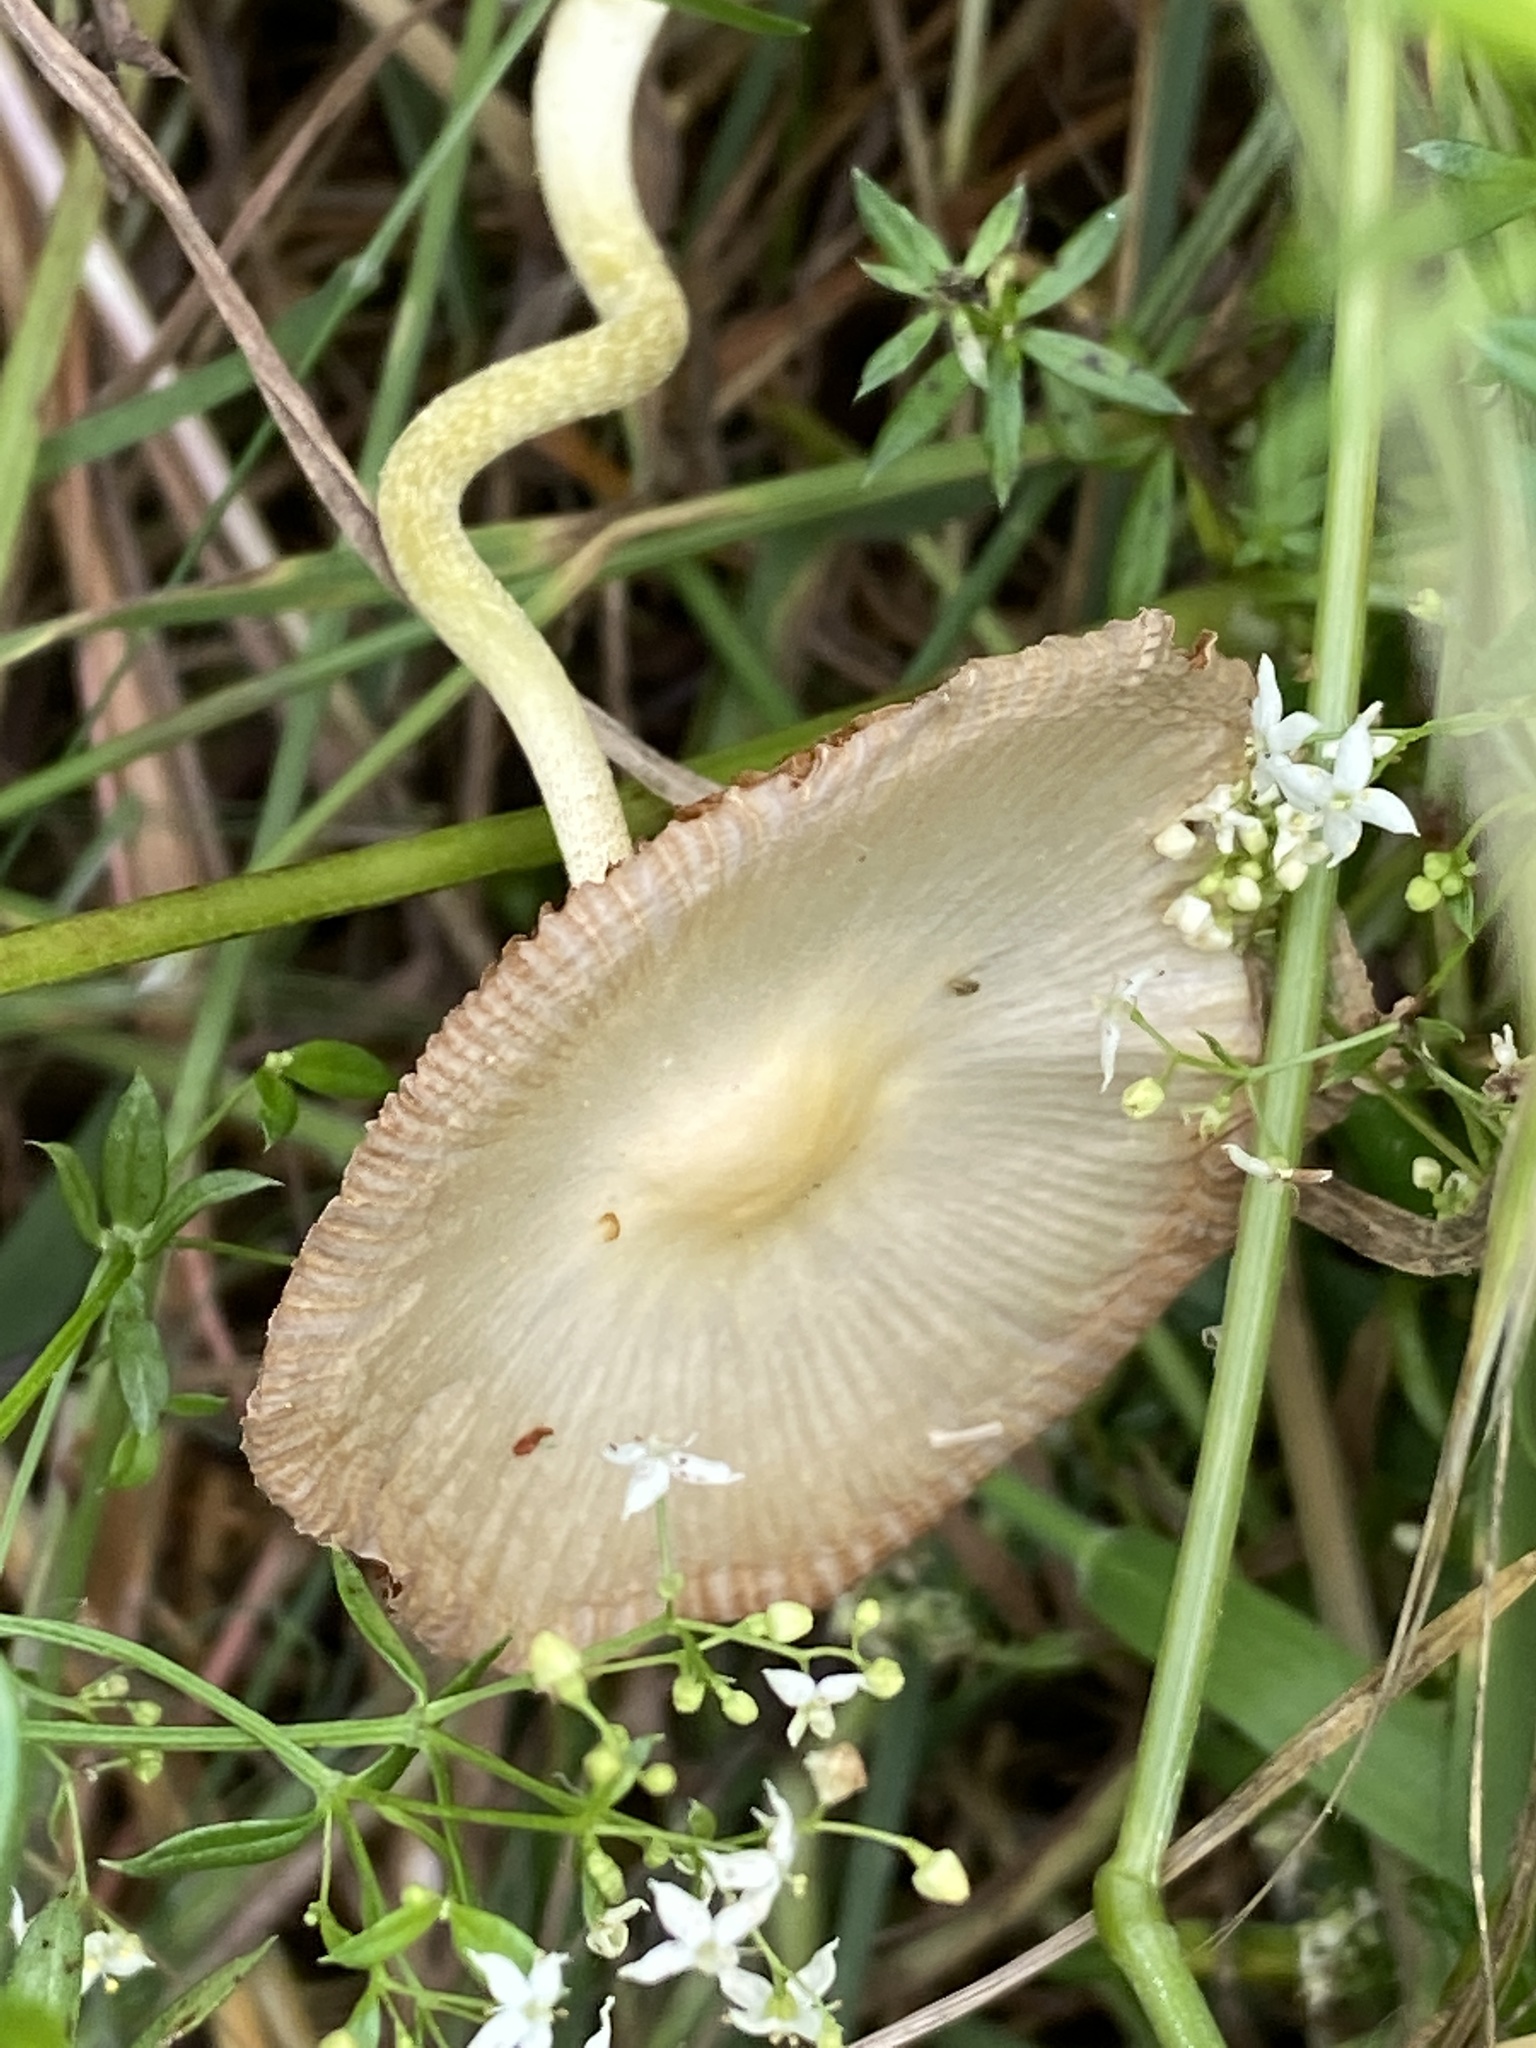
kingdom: Fungi
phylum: Basidiomycota
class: Agaricomycetes
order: Agaricales
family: Bolbitiaceae
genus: Bolbitius
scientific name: Bolbitius titubans
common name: Yellow fieldcap
